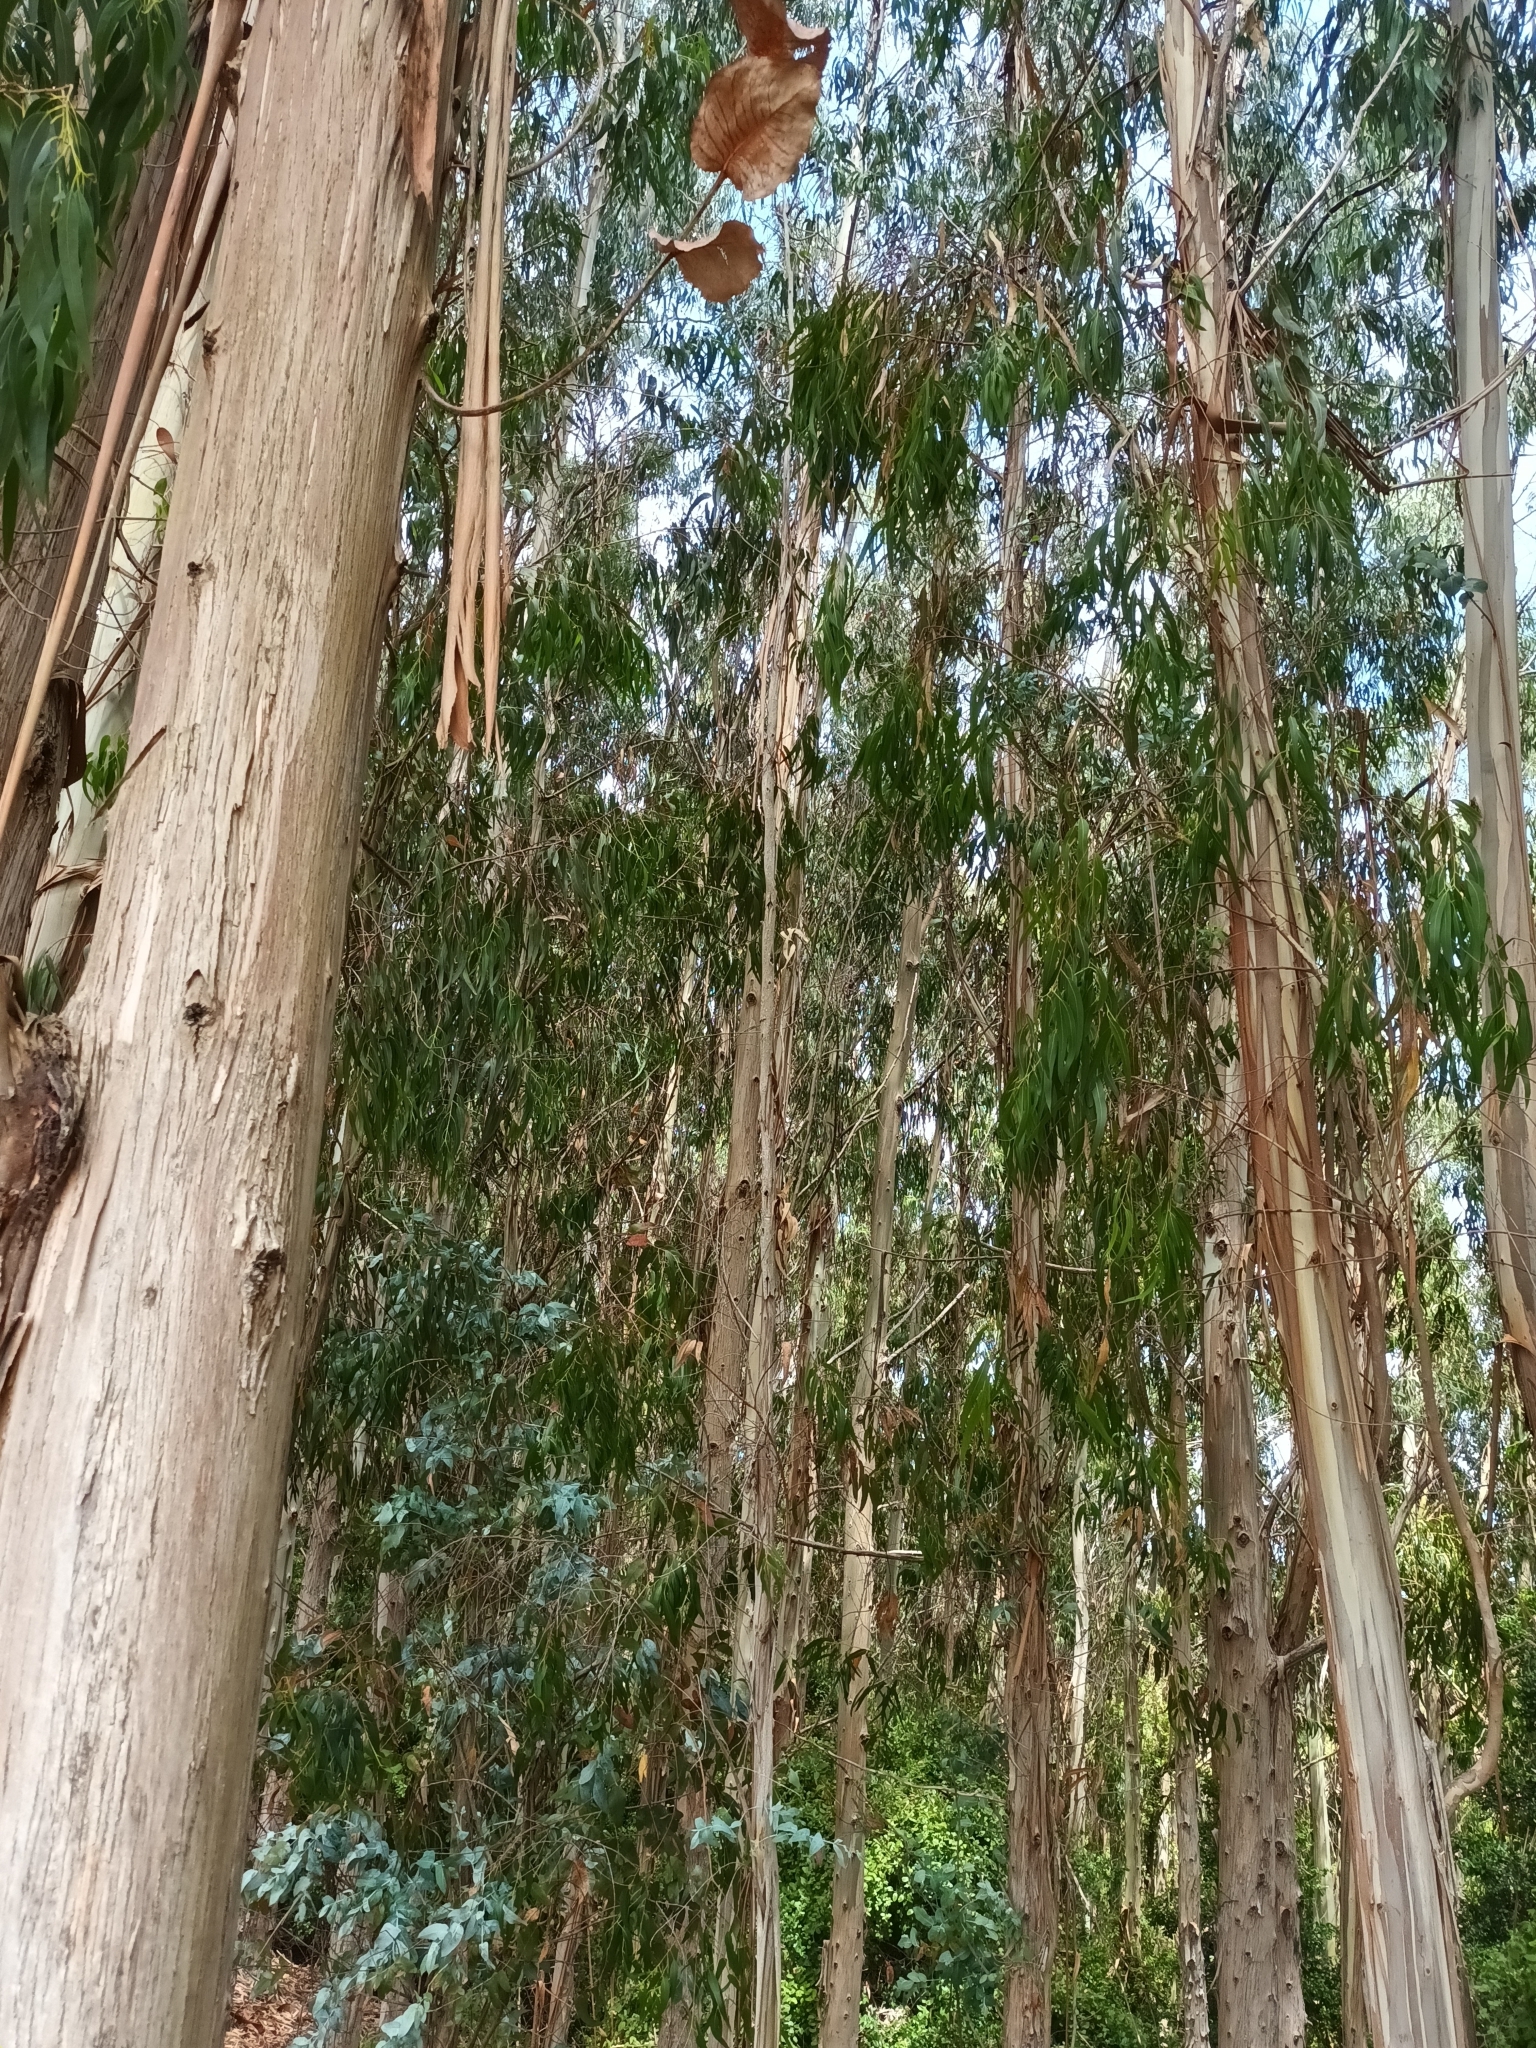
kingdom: Plantae
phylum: Tracheophyta
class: Magnoliopsida
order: Myrtales
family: Myrtaceae
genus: Eucalyptus
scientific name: Eucalyptus globulus
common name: Southern blue-gum
